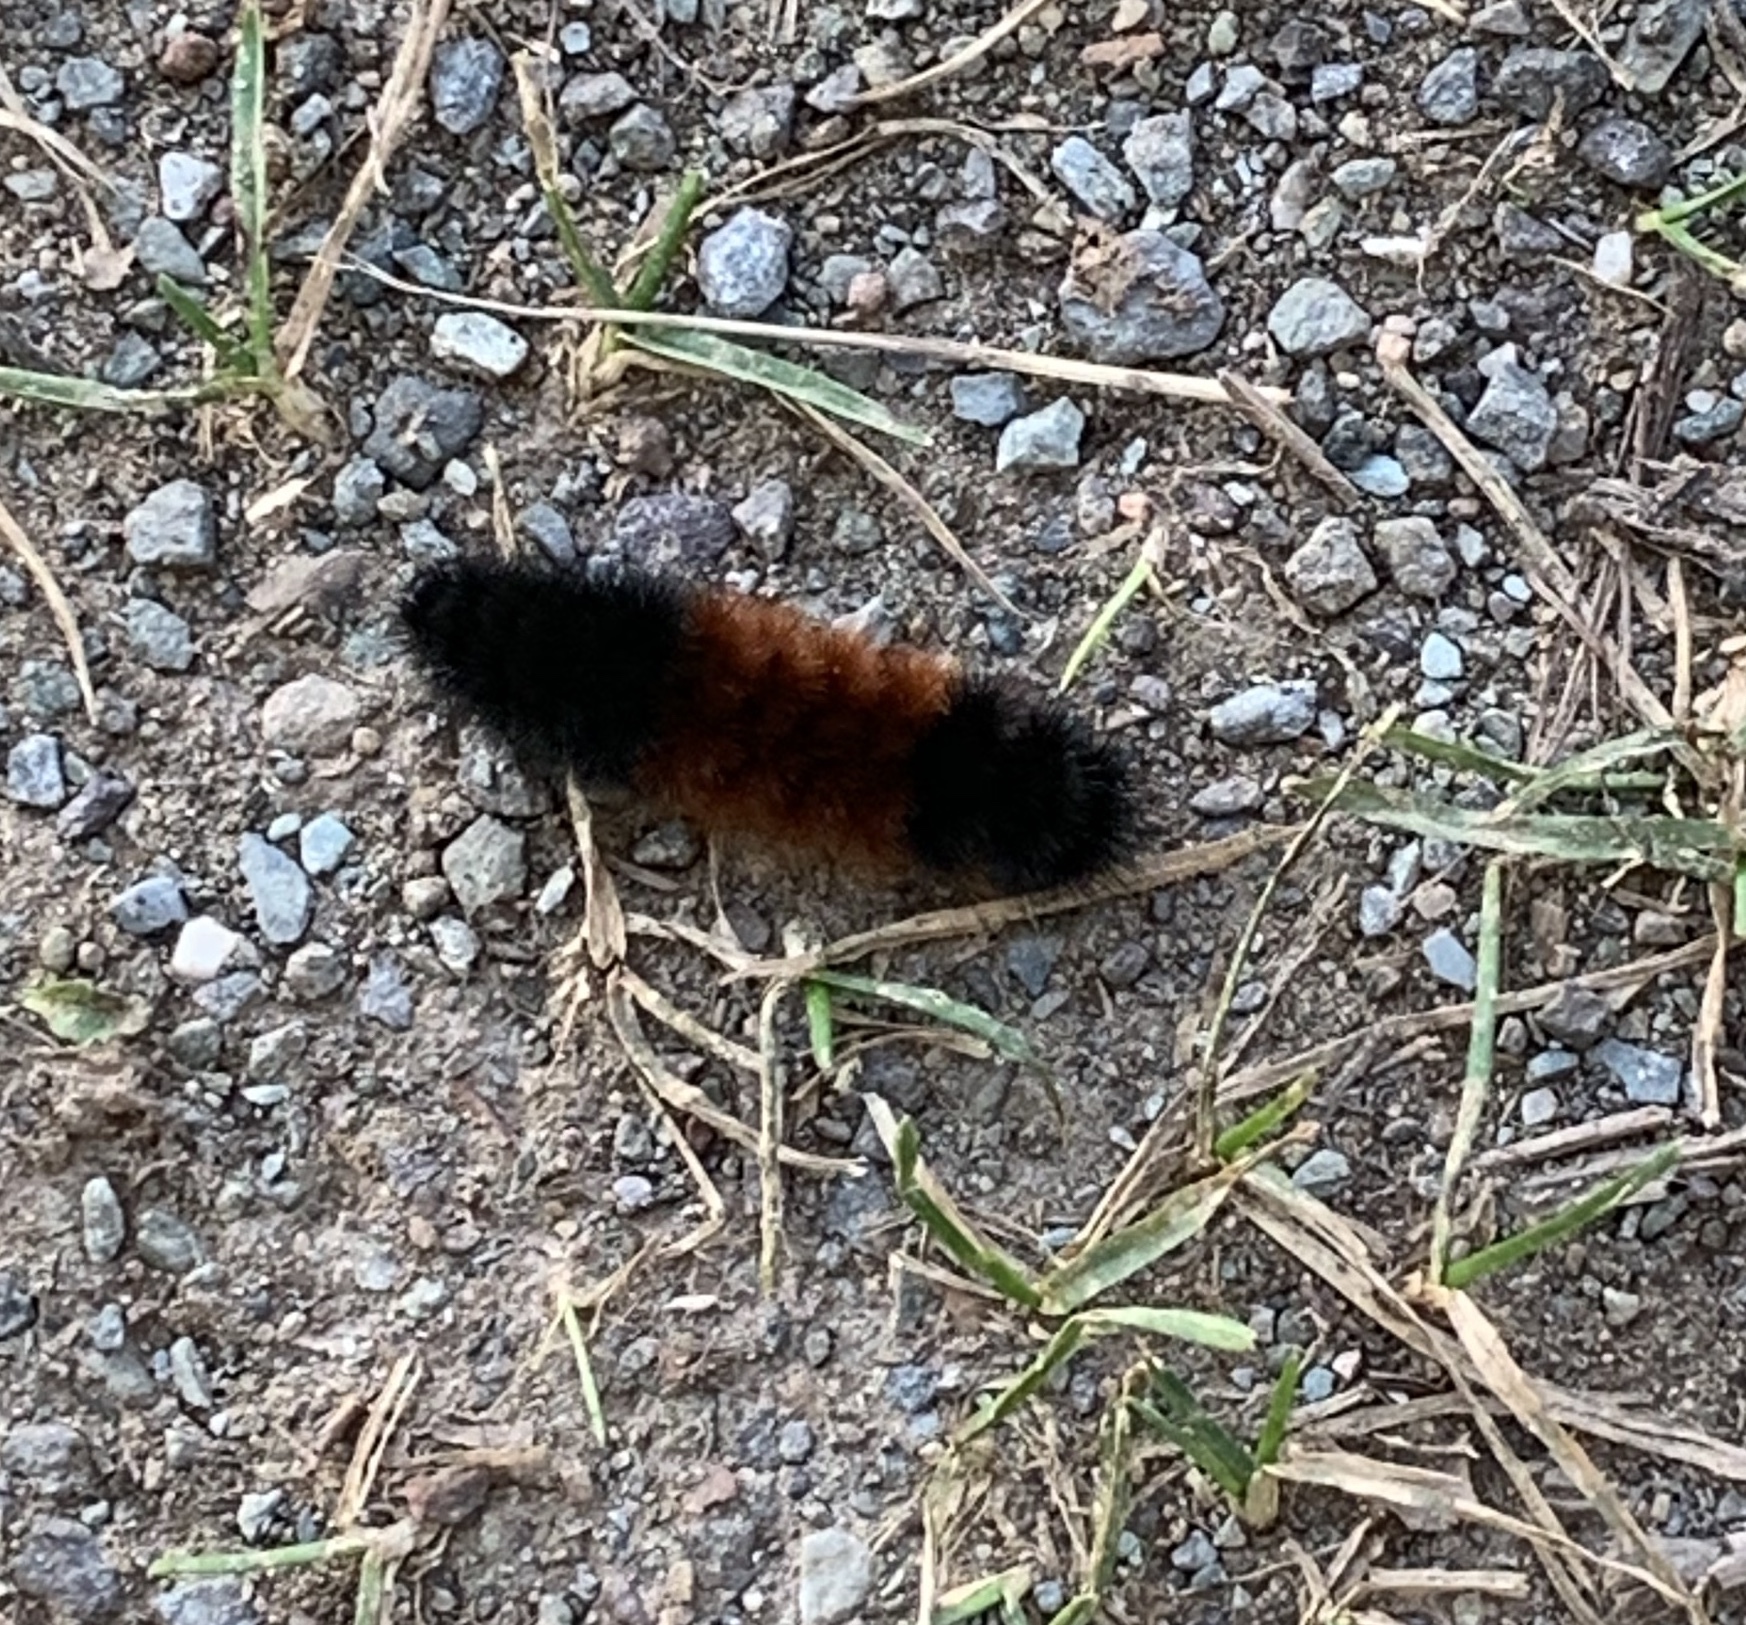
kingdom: Animalia
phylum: Arthropoda
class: Insecta
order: Lepidoptera
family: Erebidae
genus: Pyrrharctia
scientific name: Pyrrharctia isabella
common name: Isabella tiger moth
